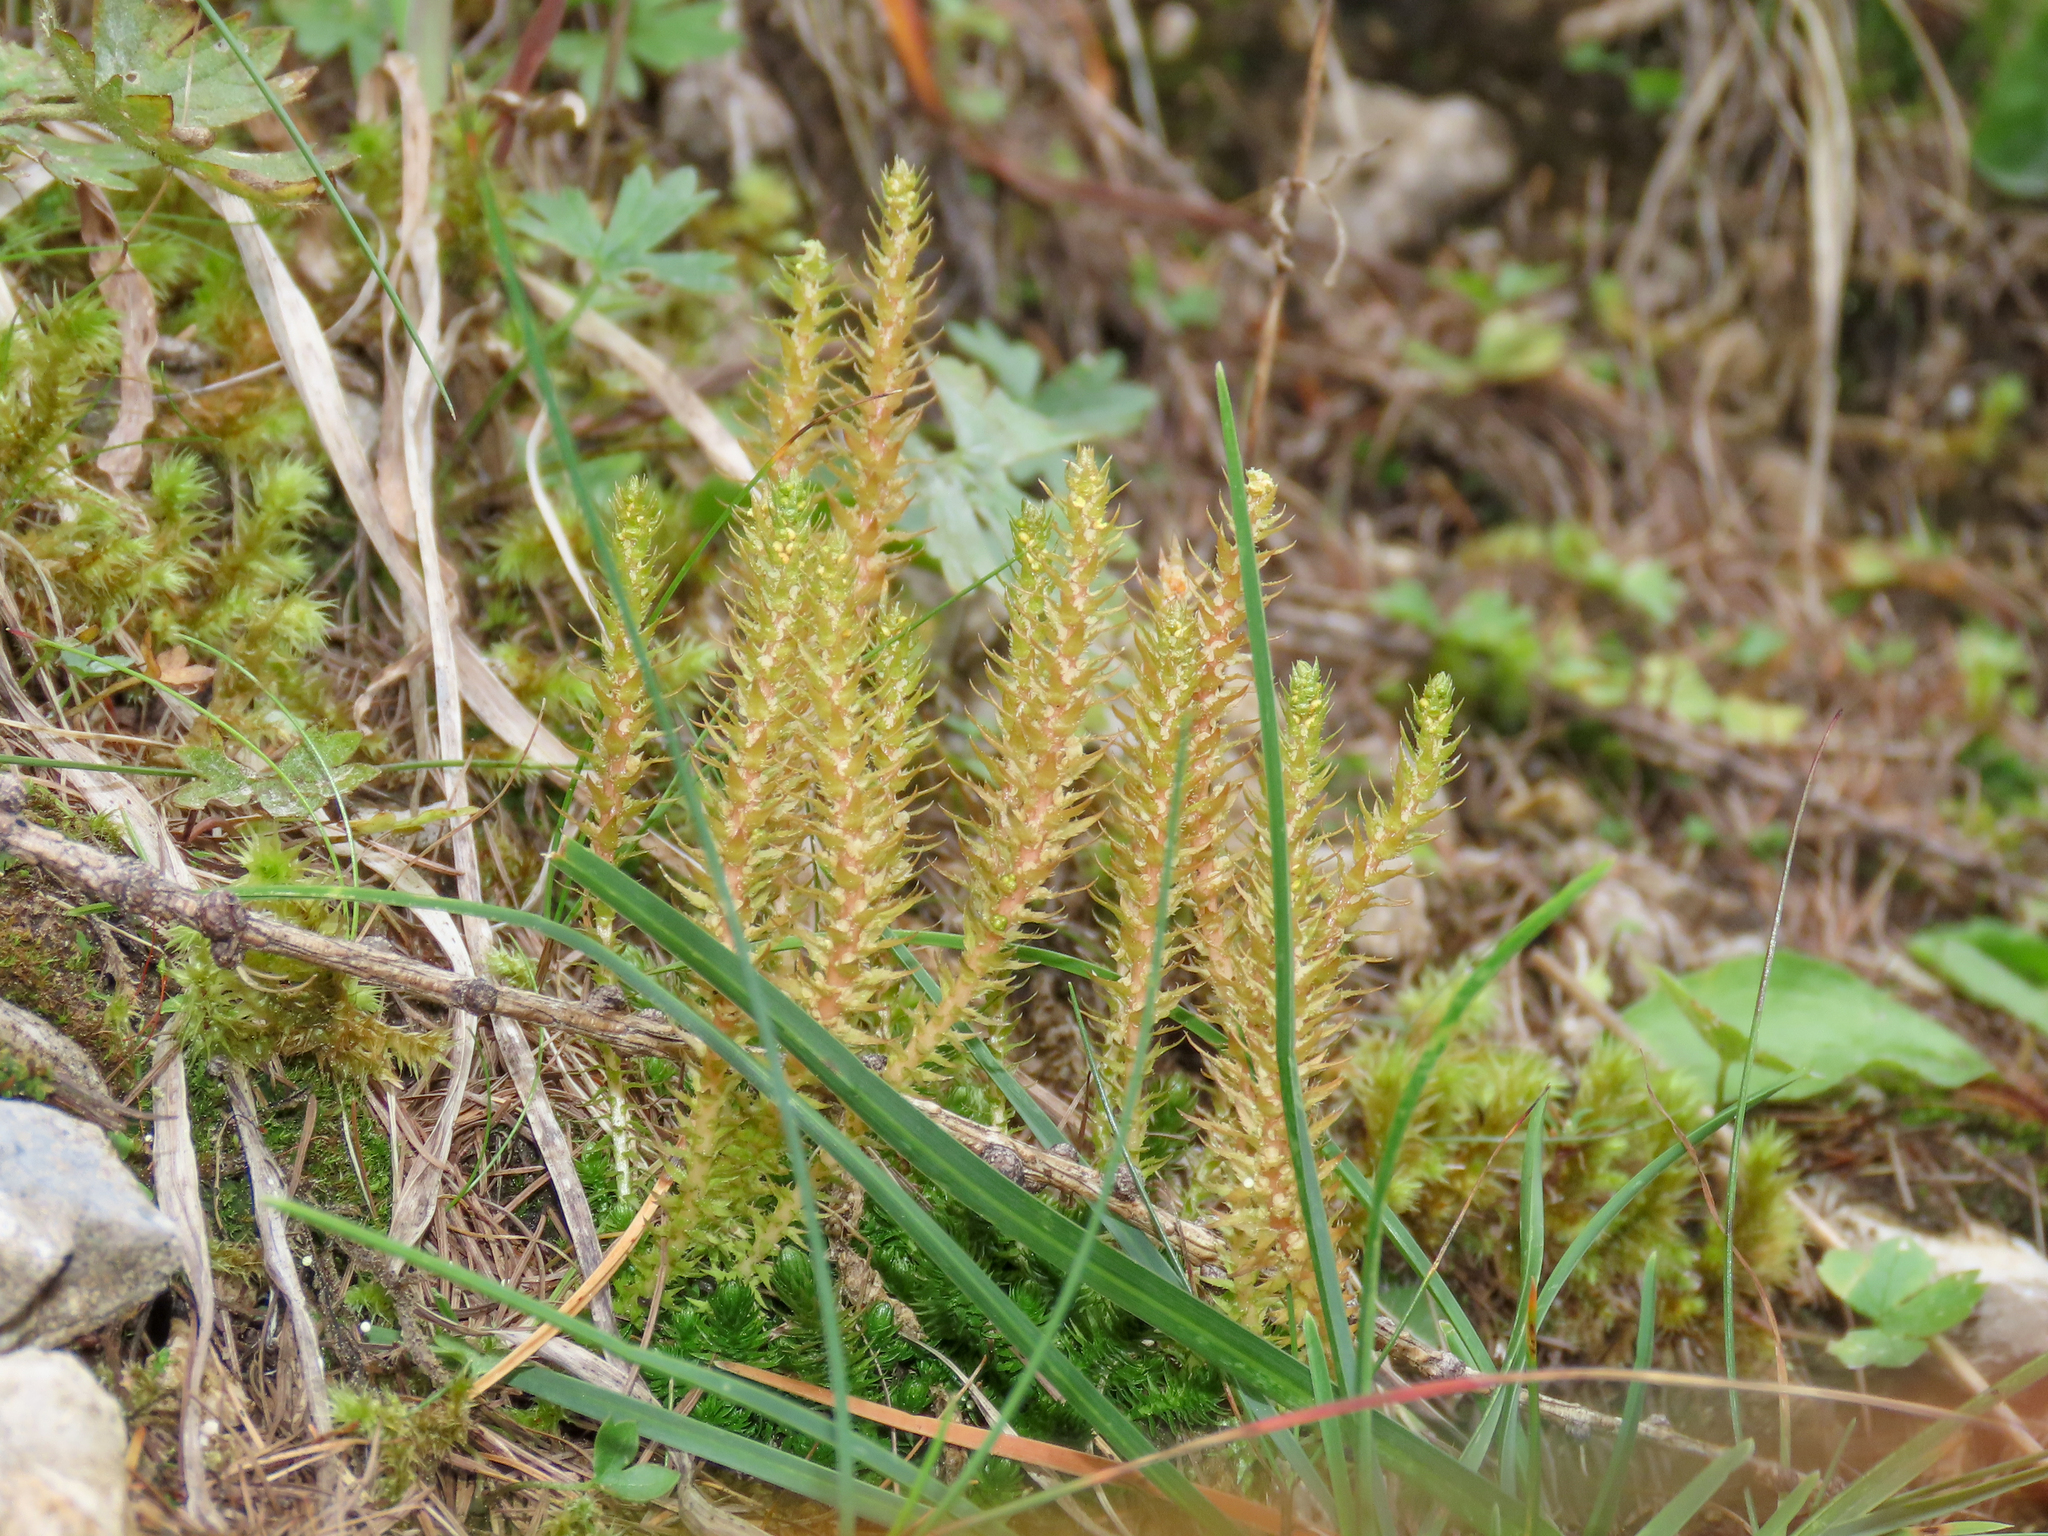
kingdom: Plantae
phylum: Tracheophyta
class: Lycopodiopsida
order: Selaginellales
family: Selaginellaceae
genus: Selaginella
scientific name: Selaginella selaginoides
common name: Prickly mountain-moss
